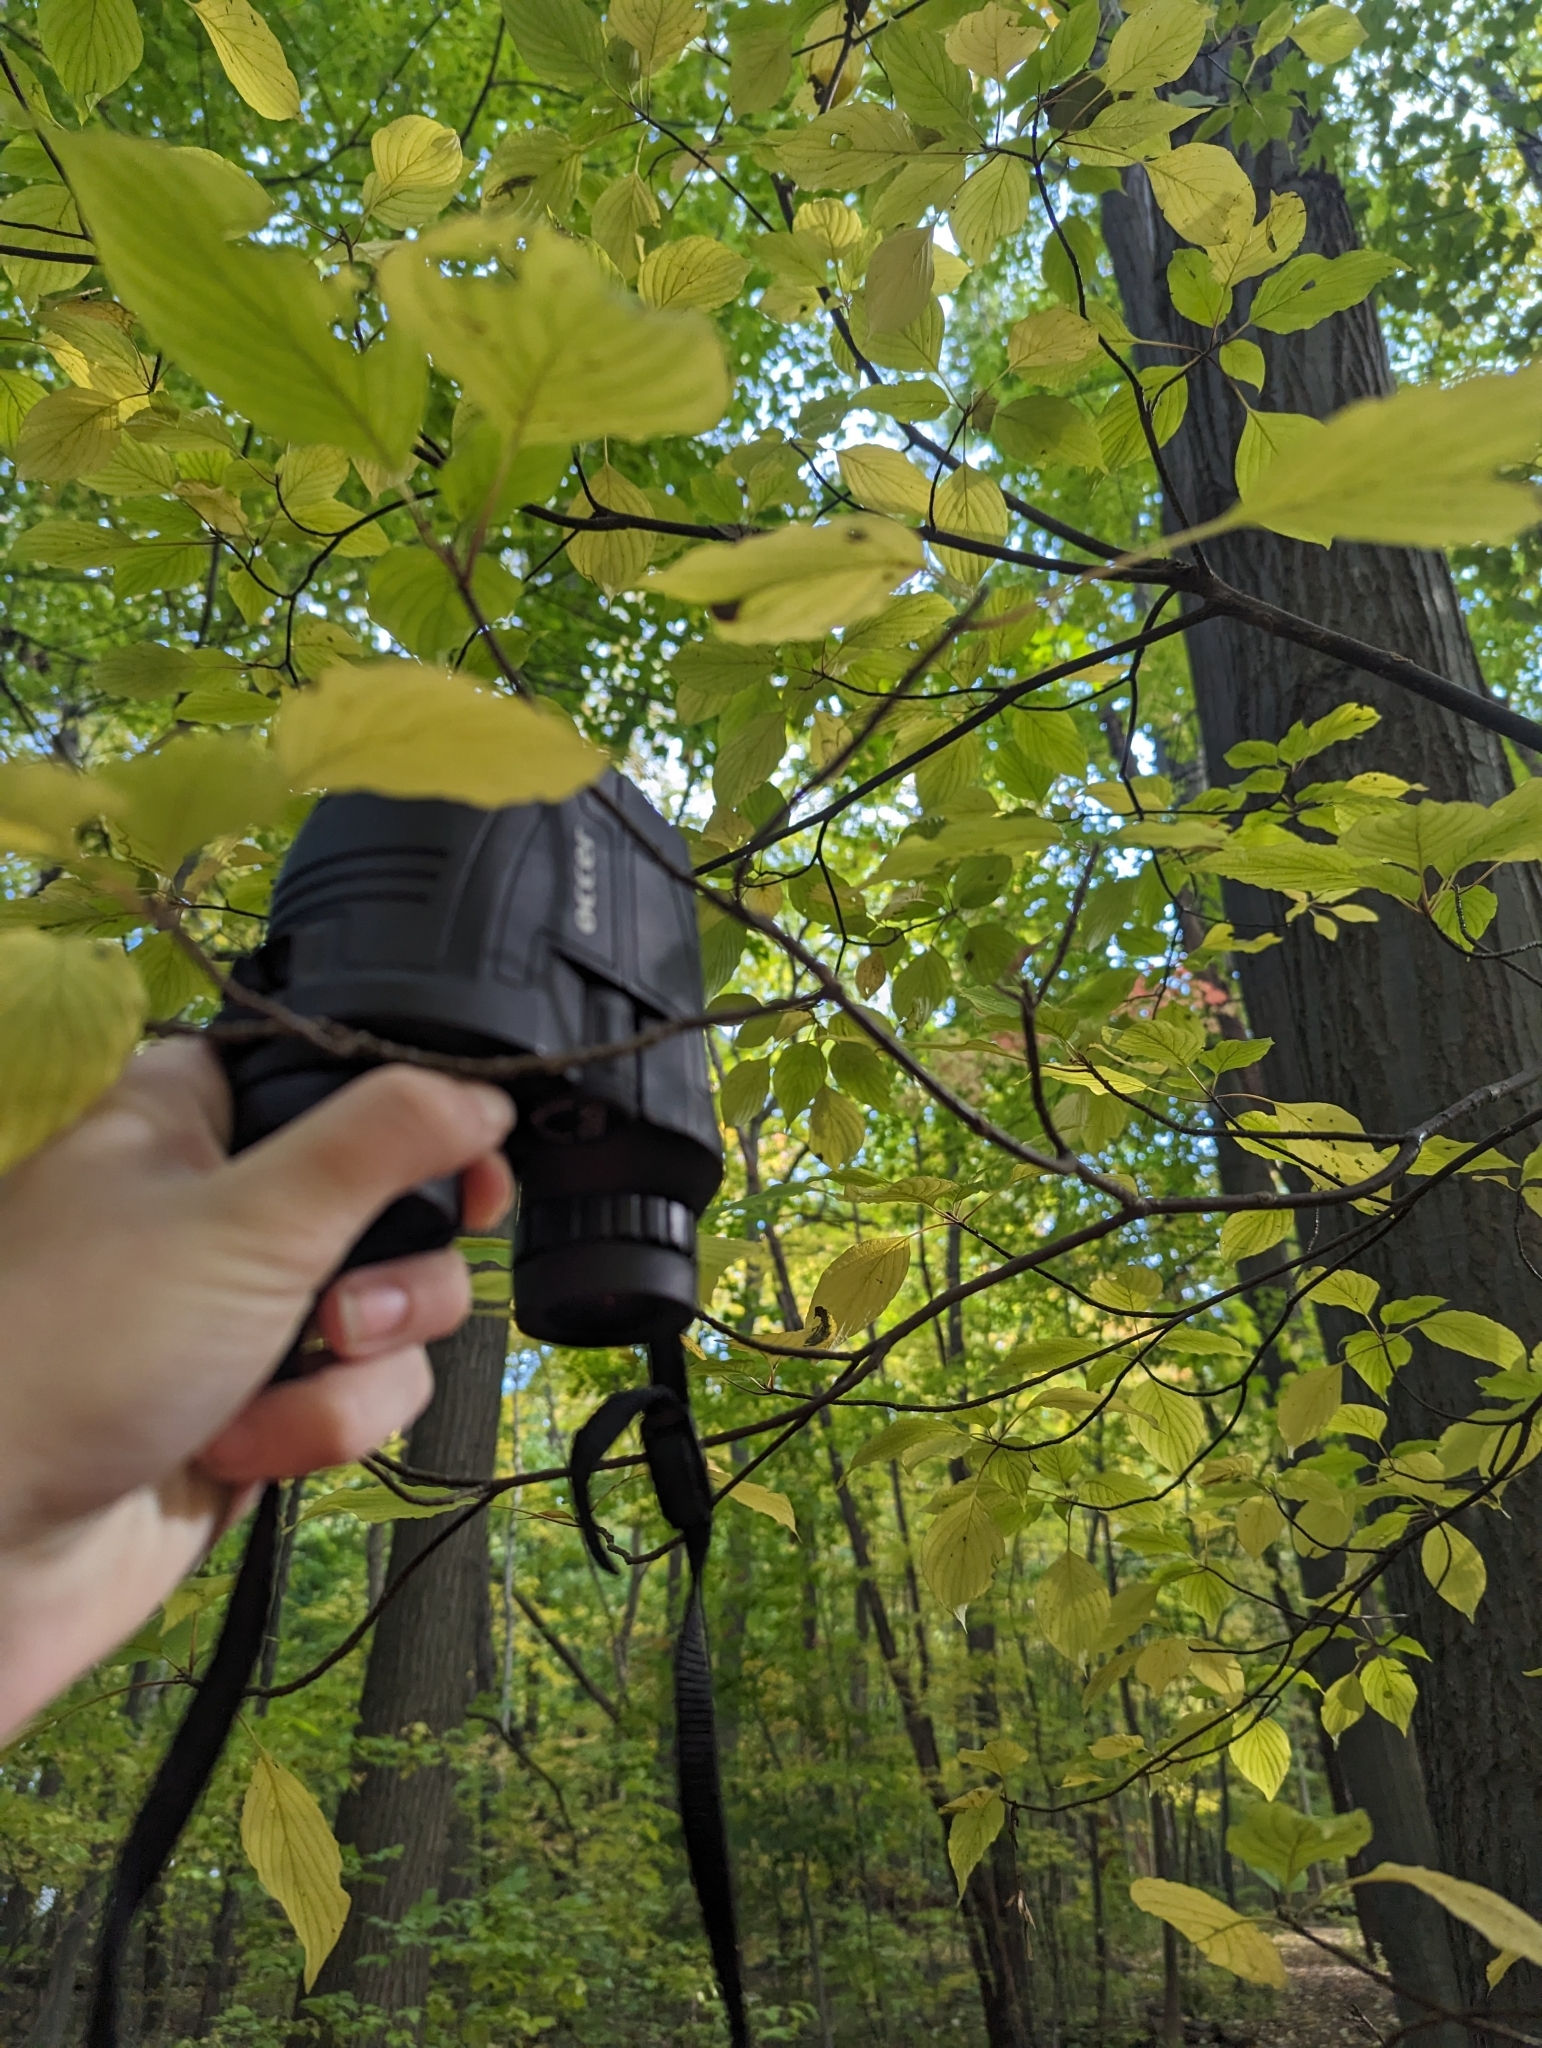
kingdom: Plantae
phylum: Tracheophyta
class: Magnoliopsida
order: Cornales
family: Cornaceae
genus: Cornus
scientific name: Cornus alternifolia
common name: Pagoda dogwood
